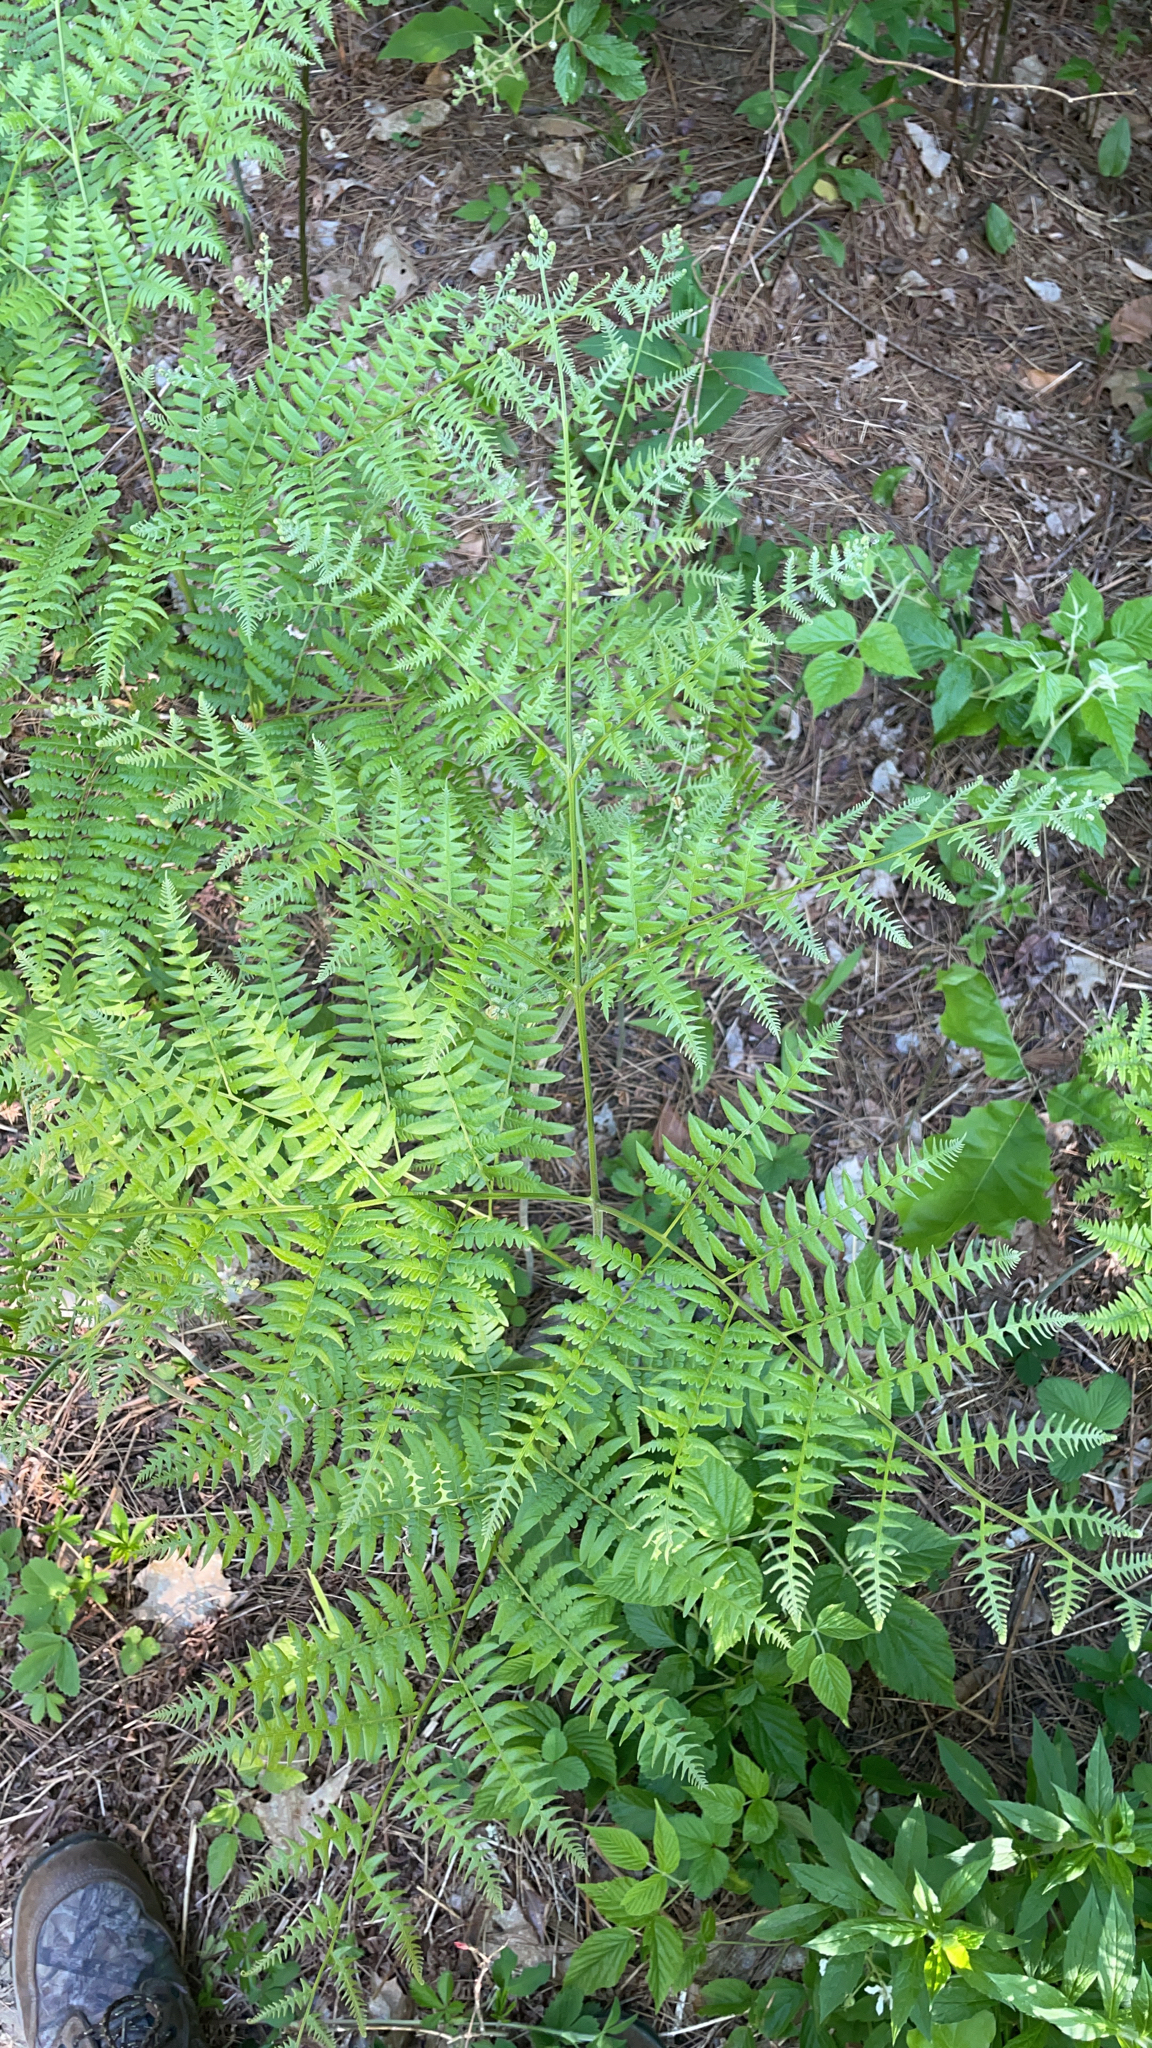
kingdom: Plantae
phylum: Tracheophyta
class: Polypodiopsida
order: Polypodiales
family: Dennstaedtiaceae
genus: Pteridium
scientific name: Pteridium aquilinum
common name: Bracken
